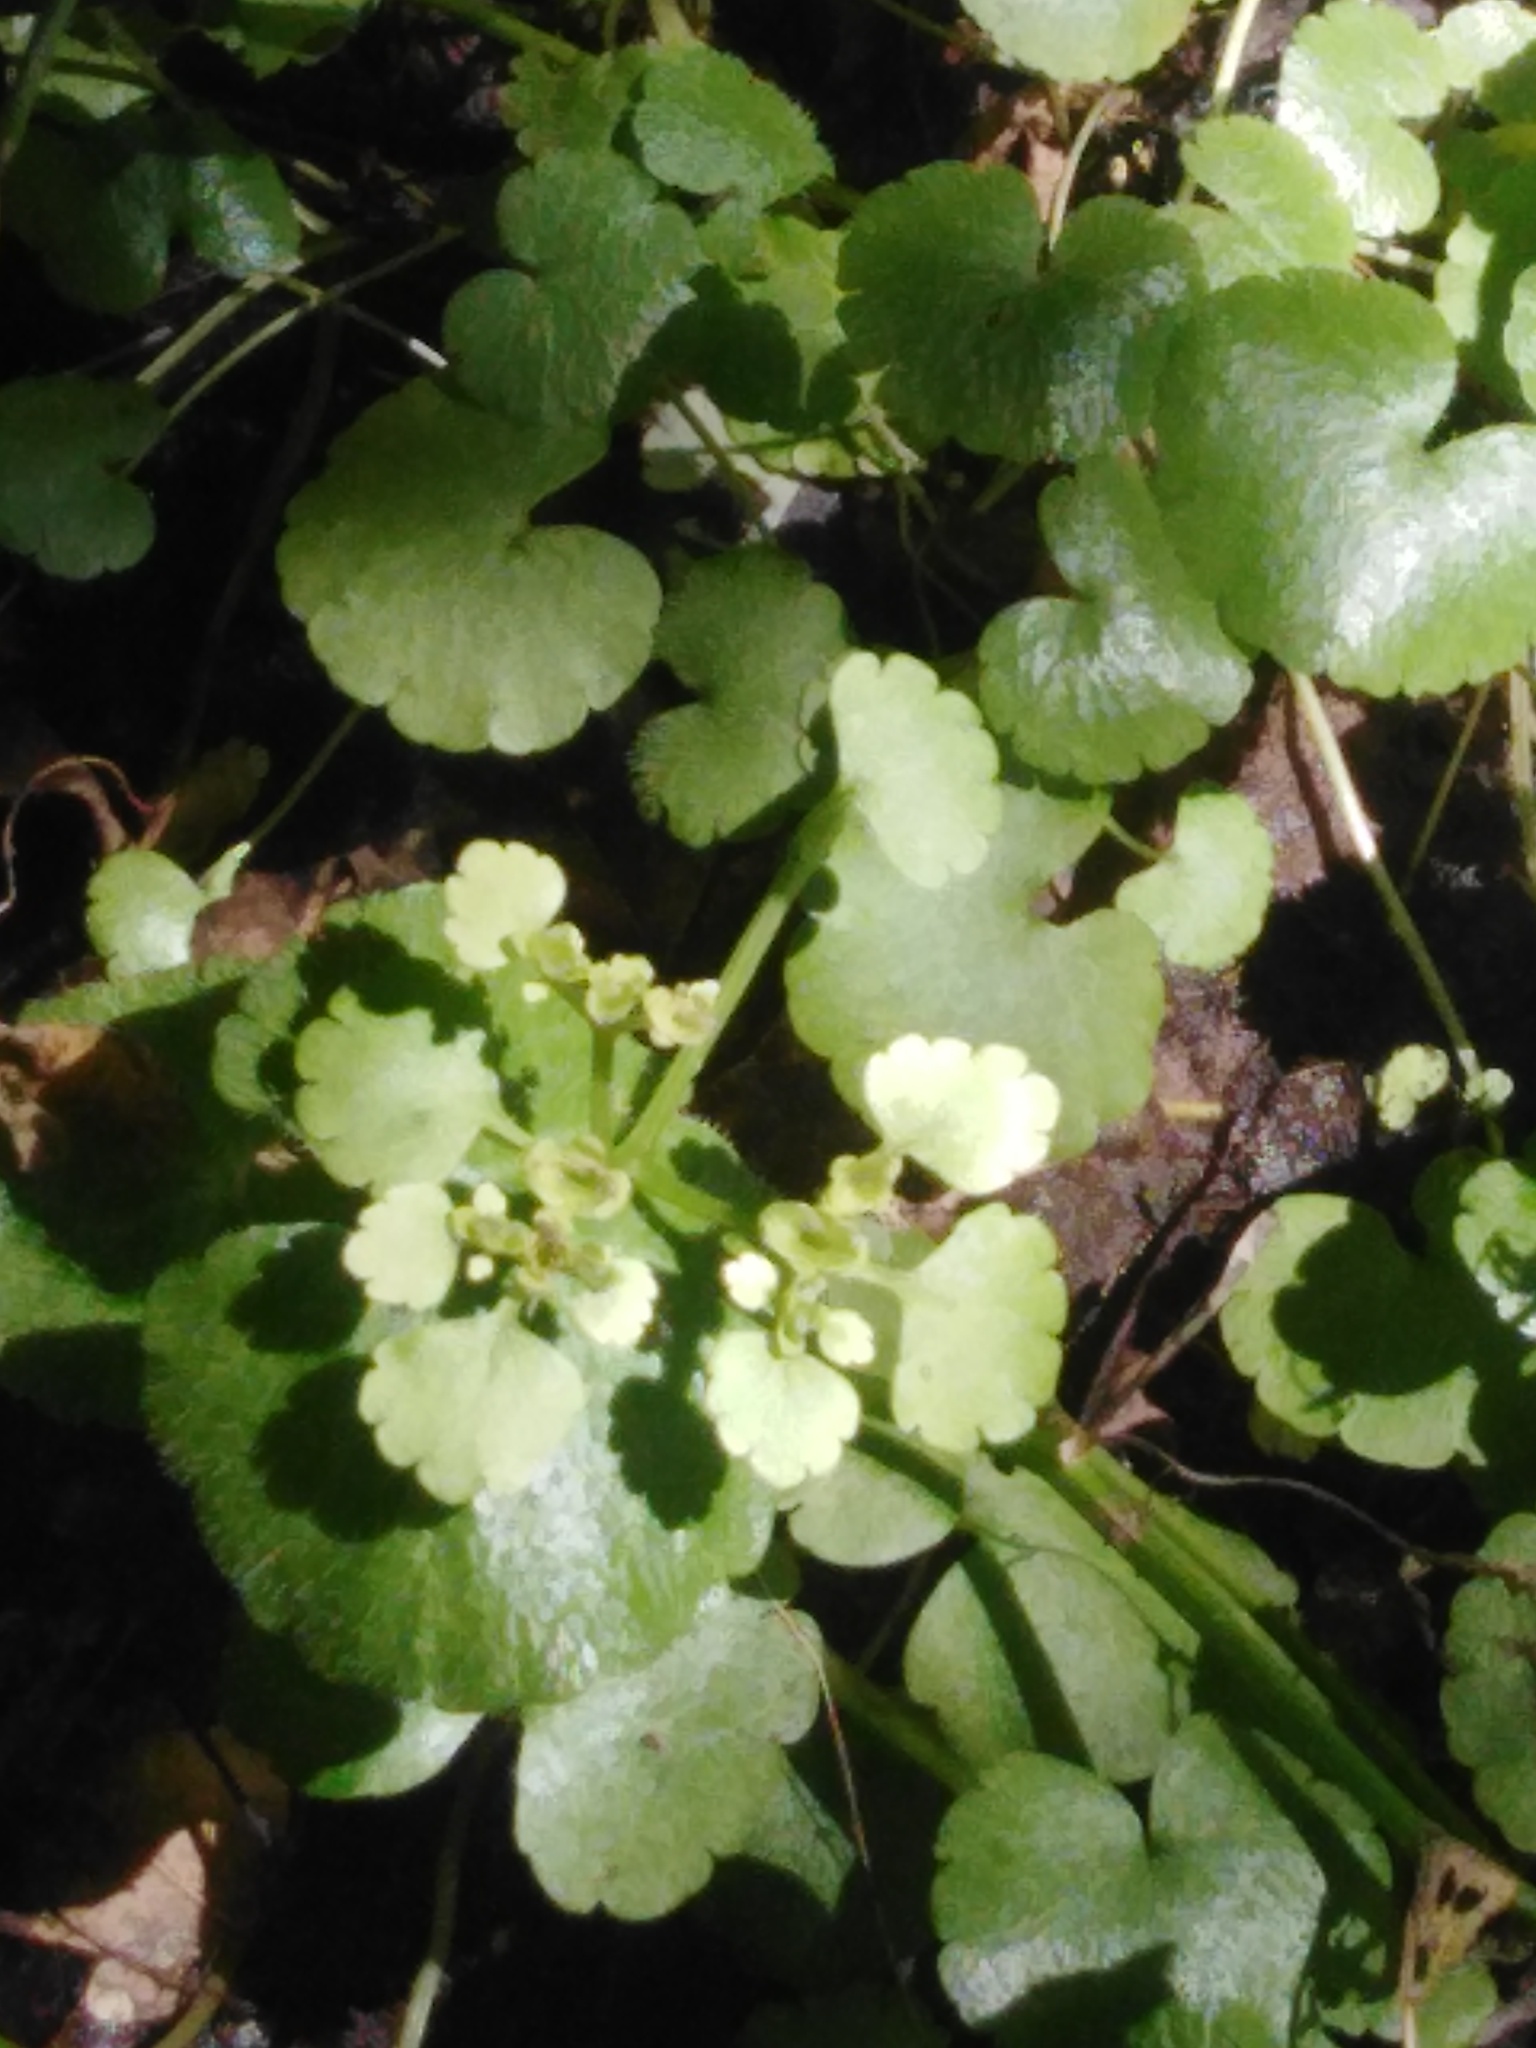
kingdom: Plantae
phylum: Tracheophyta
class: Magnoliopsida
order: Saxifragales
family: Saxifragaceae
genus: Chrysosplenium
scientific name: Chrysosplenium alternifolium
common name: Alternate-leaved golden-saxifrage
